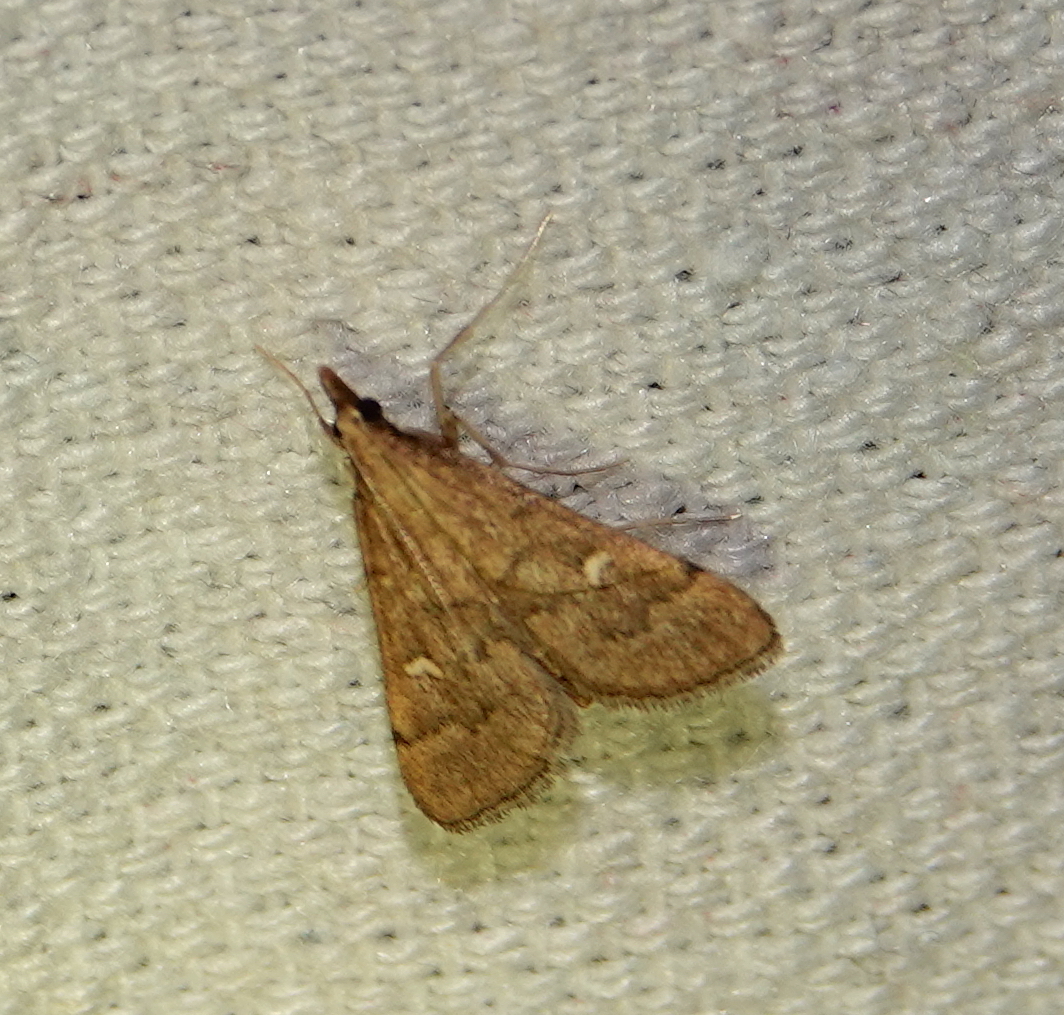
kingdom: Animalia
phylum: Arthropoda
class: Insecta
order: Lepidoptera
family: Crambidae
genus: Stenia
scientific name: Stenia Dolicharthria punctalis
